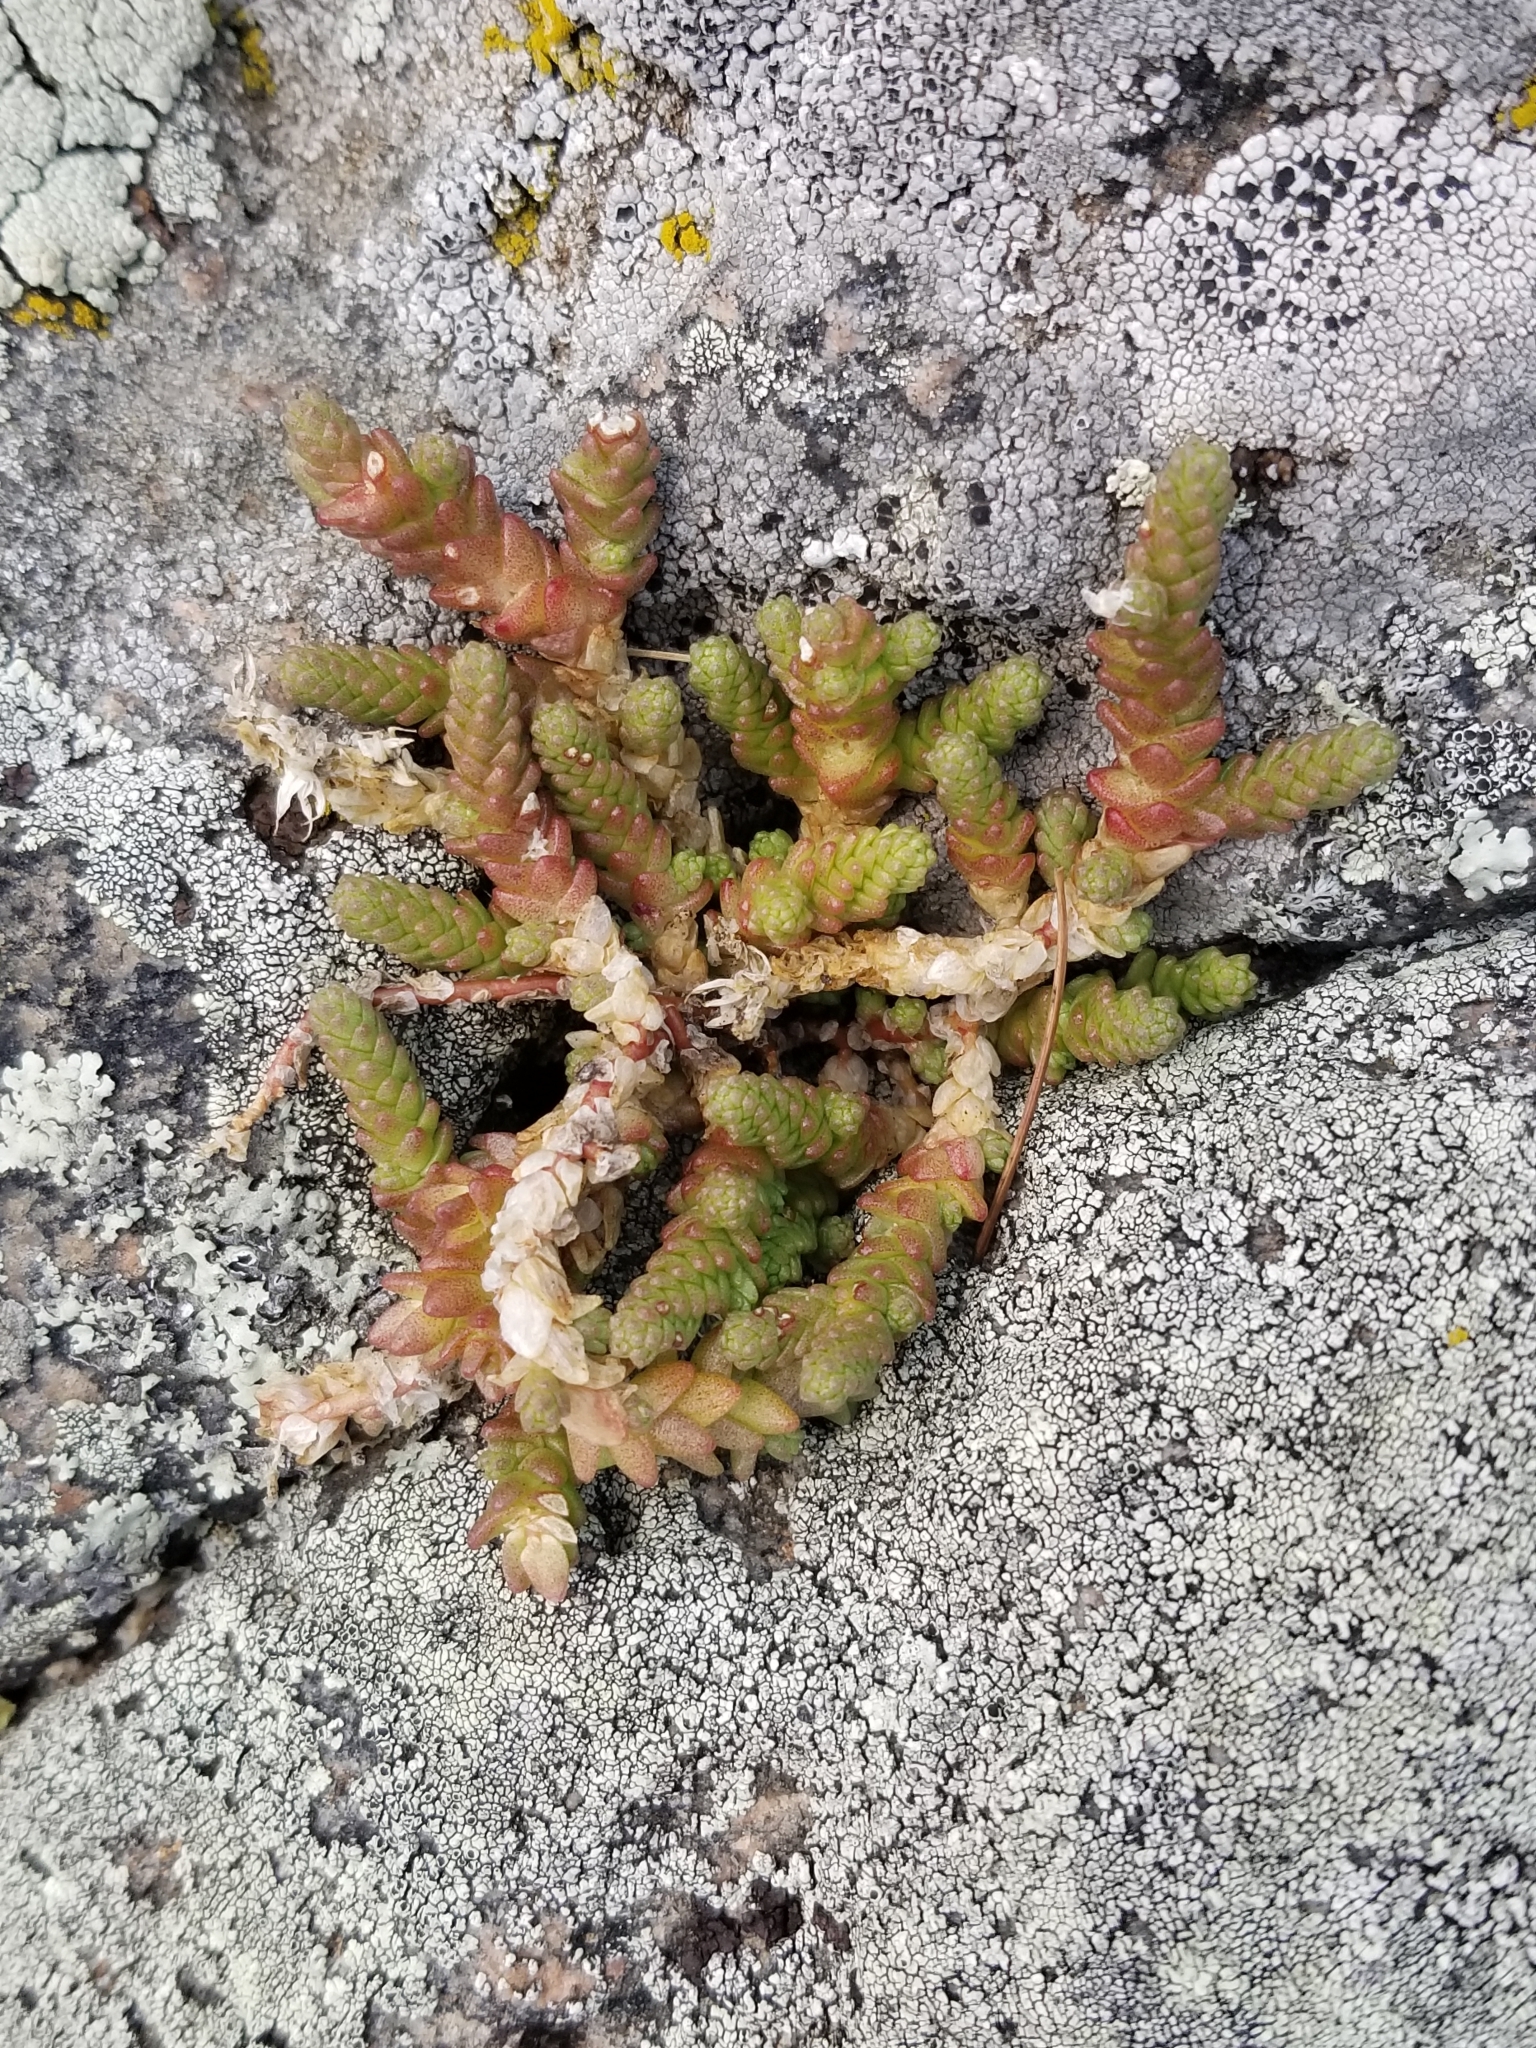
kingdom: Plantae
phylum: Tracheophyta
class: Magnoliopsida
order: Saxifragales
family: Crassulaceae
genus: Sedum
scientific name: Sedum acre
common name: Biting stonecrop
